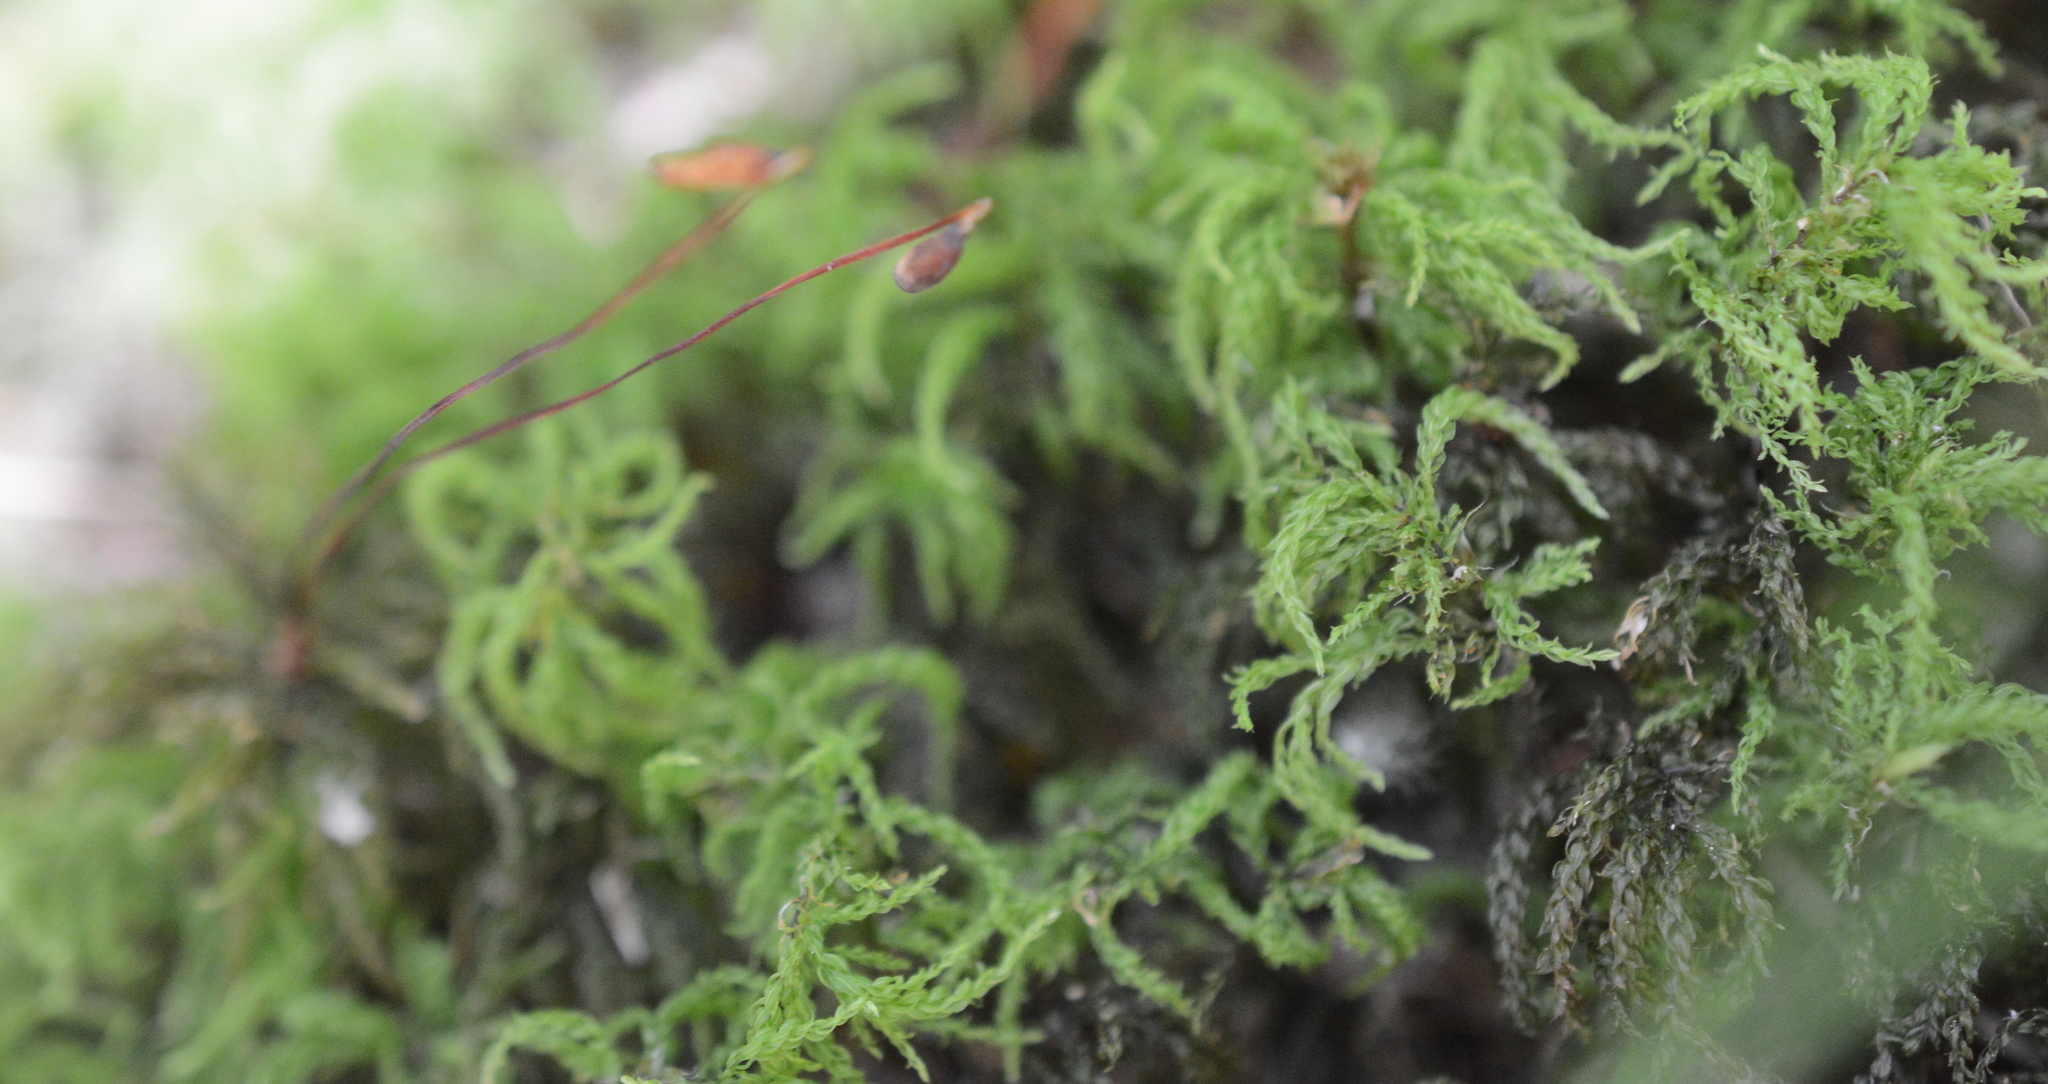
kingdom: Plantae
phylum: Bryophyta
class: Bryopsida
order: Bryales
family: Mniaceae
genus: Leucolepis
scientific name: Leucolepis acanthoneura
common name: Leucolepis umbrella moss
